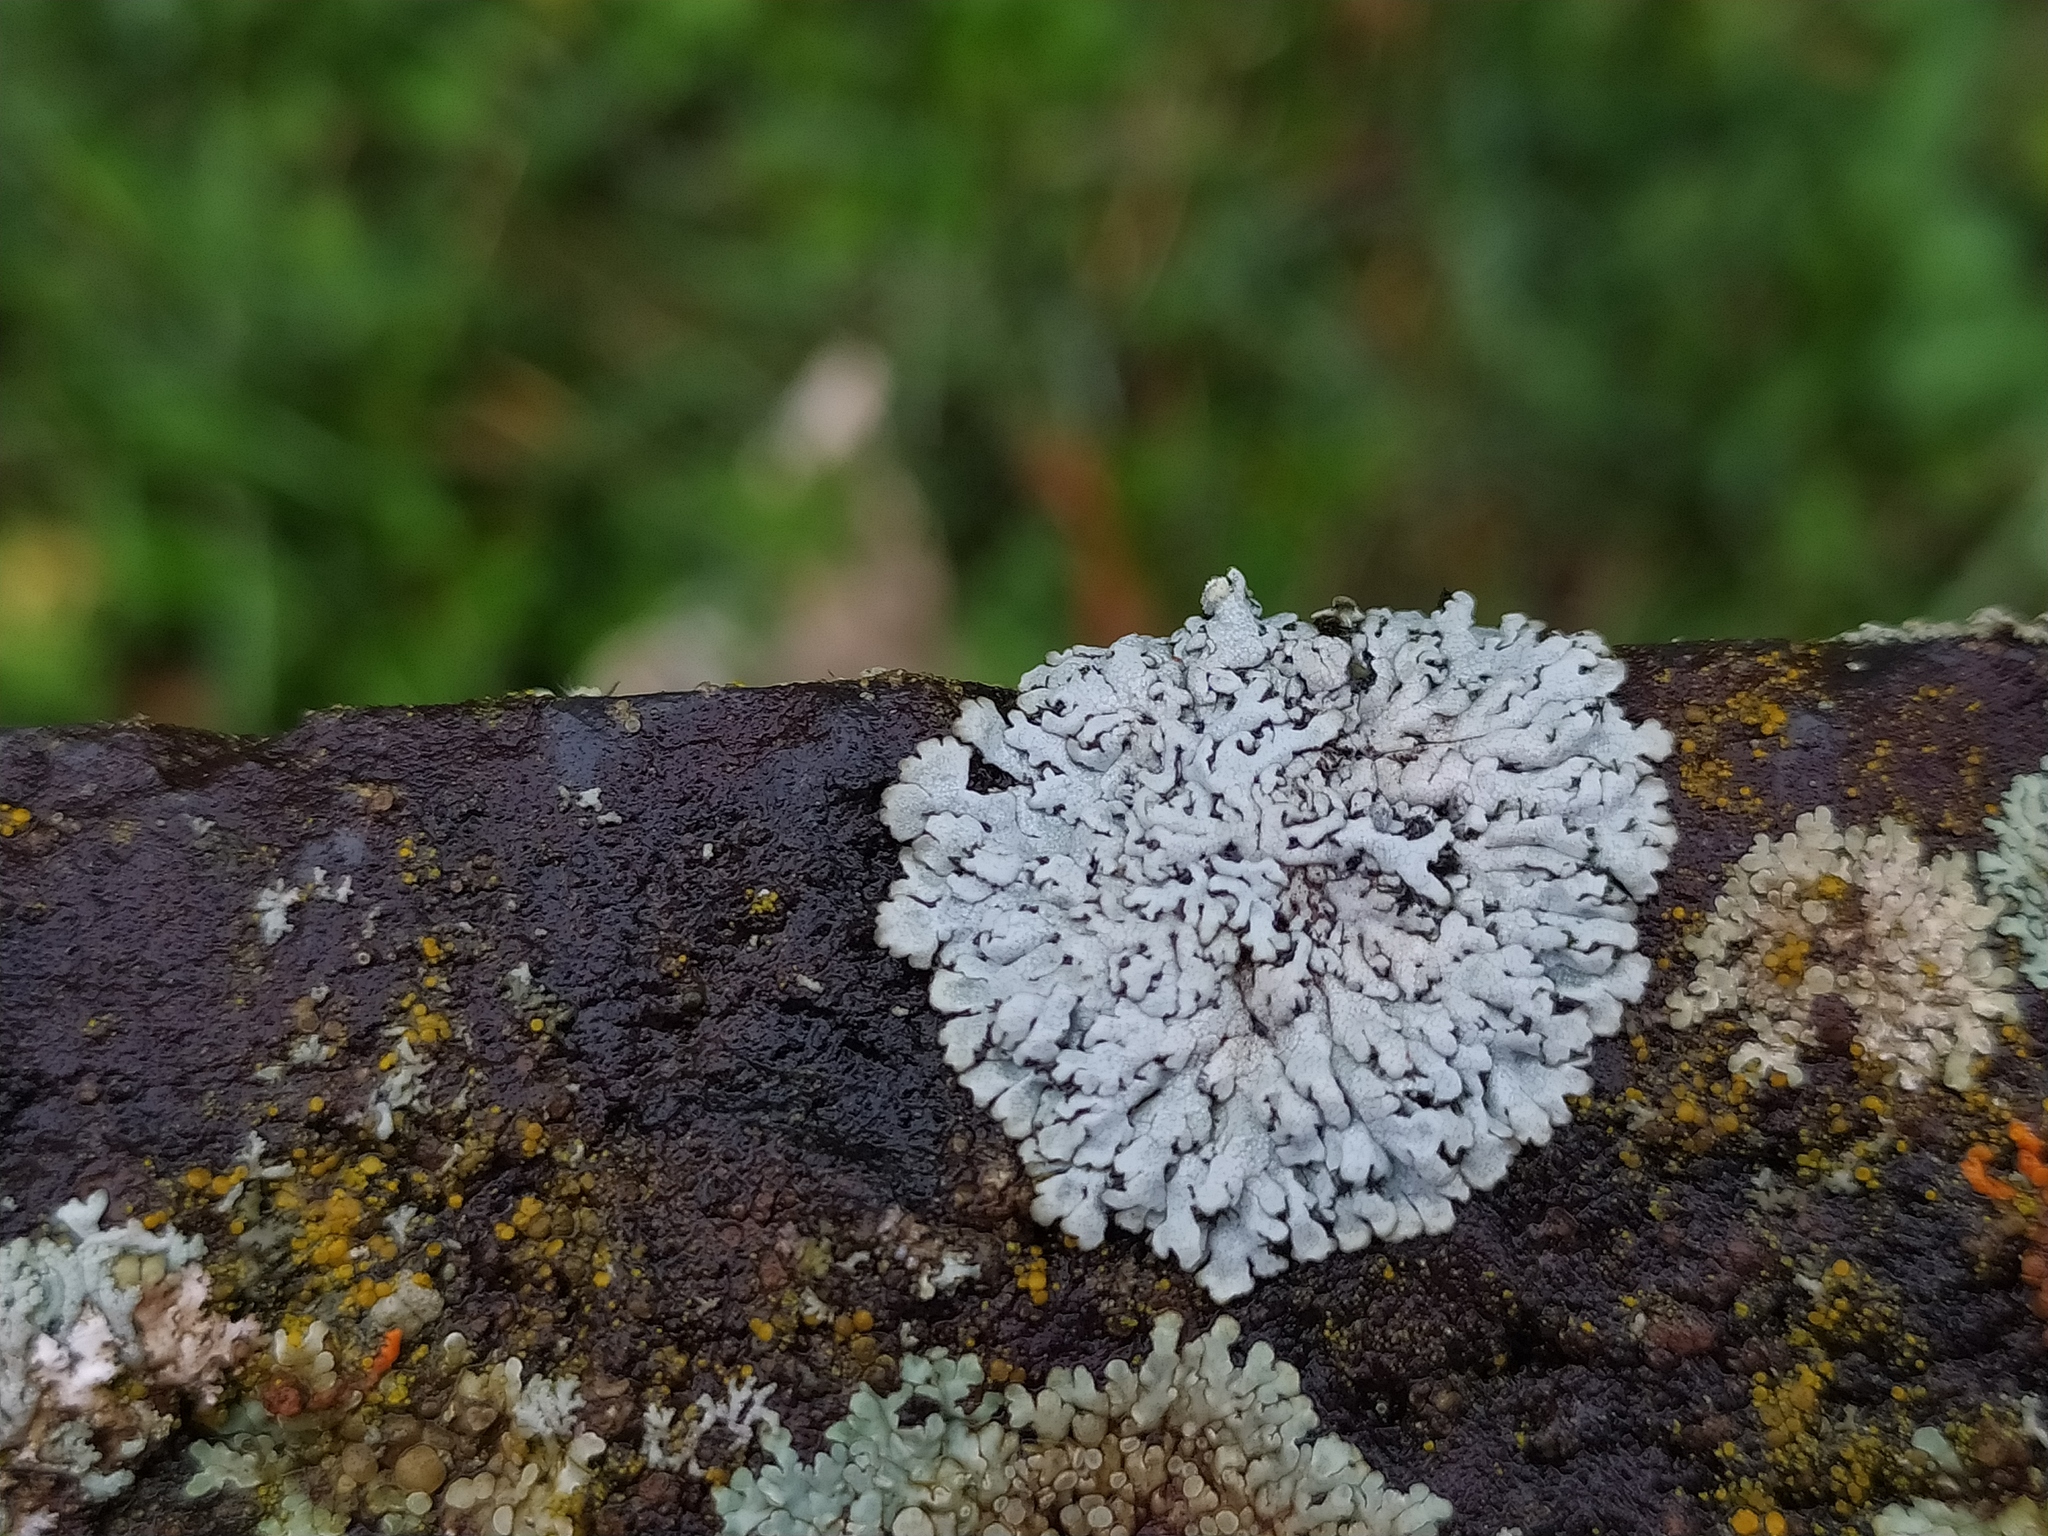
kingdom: Fungi
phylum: Ascomycota
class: Lecanoromycetes
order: Caliciales
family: Physciaceae
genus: Physcia
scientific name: Physcia caesia
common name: Blue-gray rosette lichen
